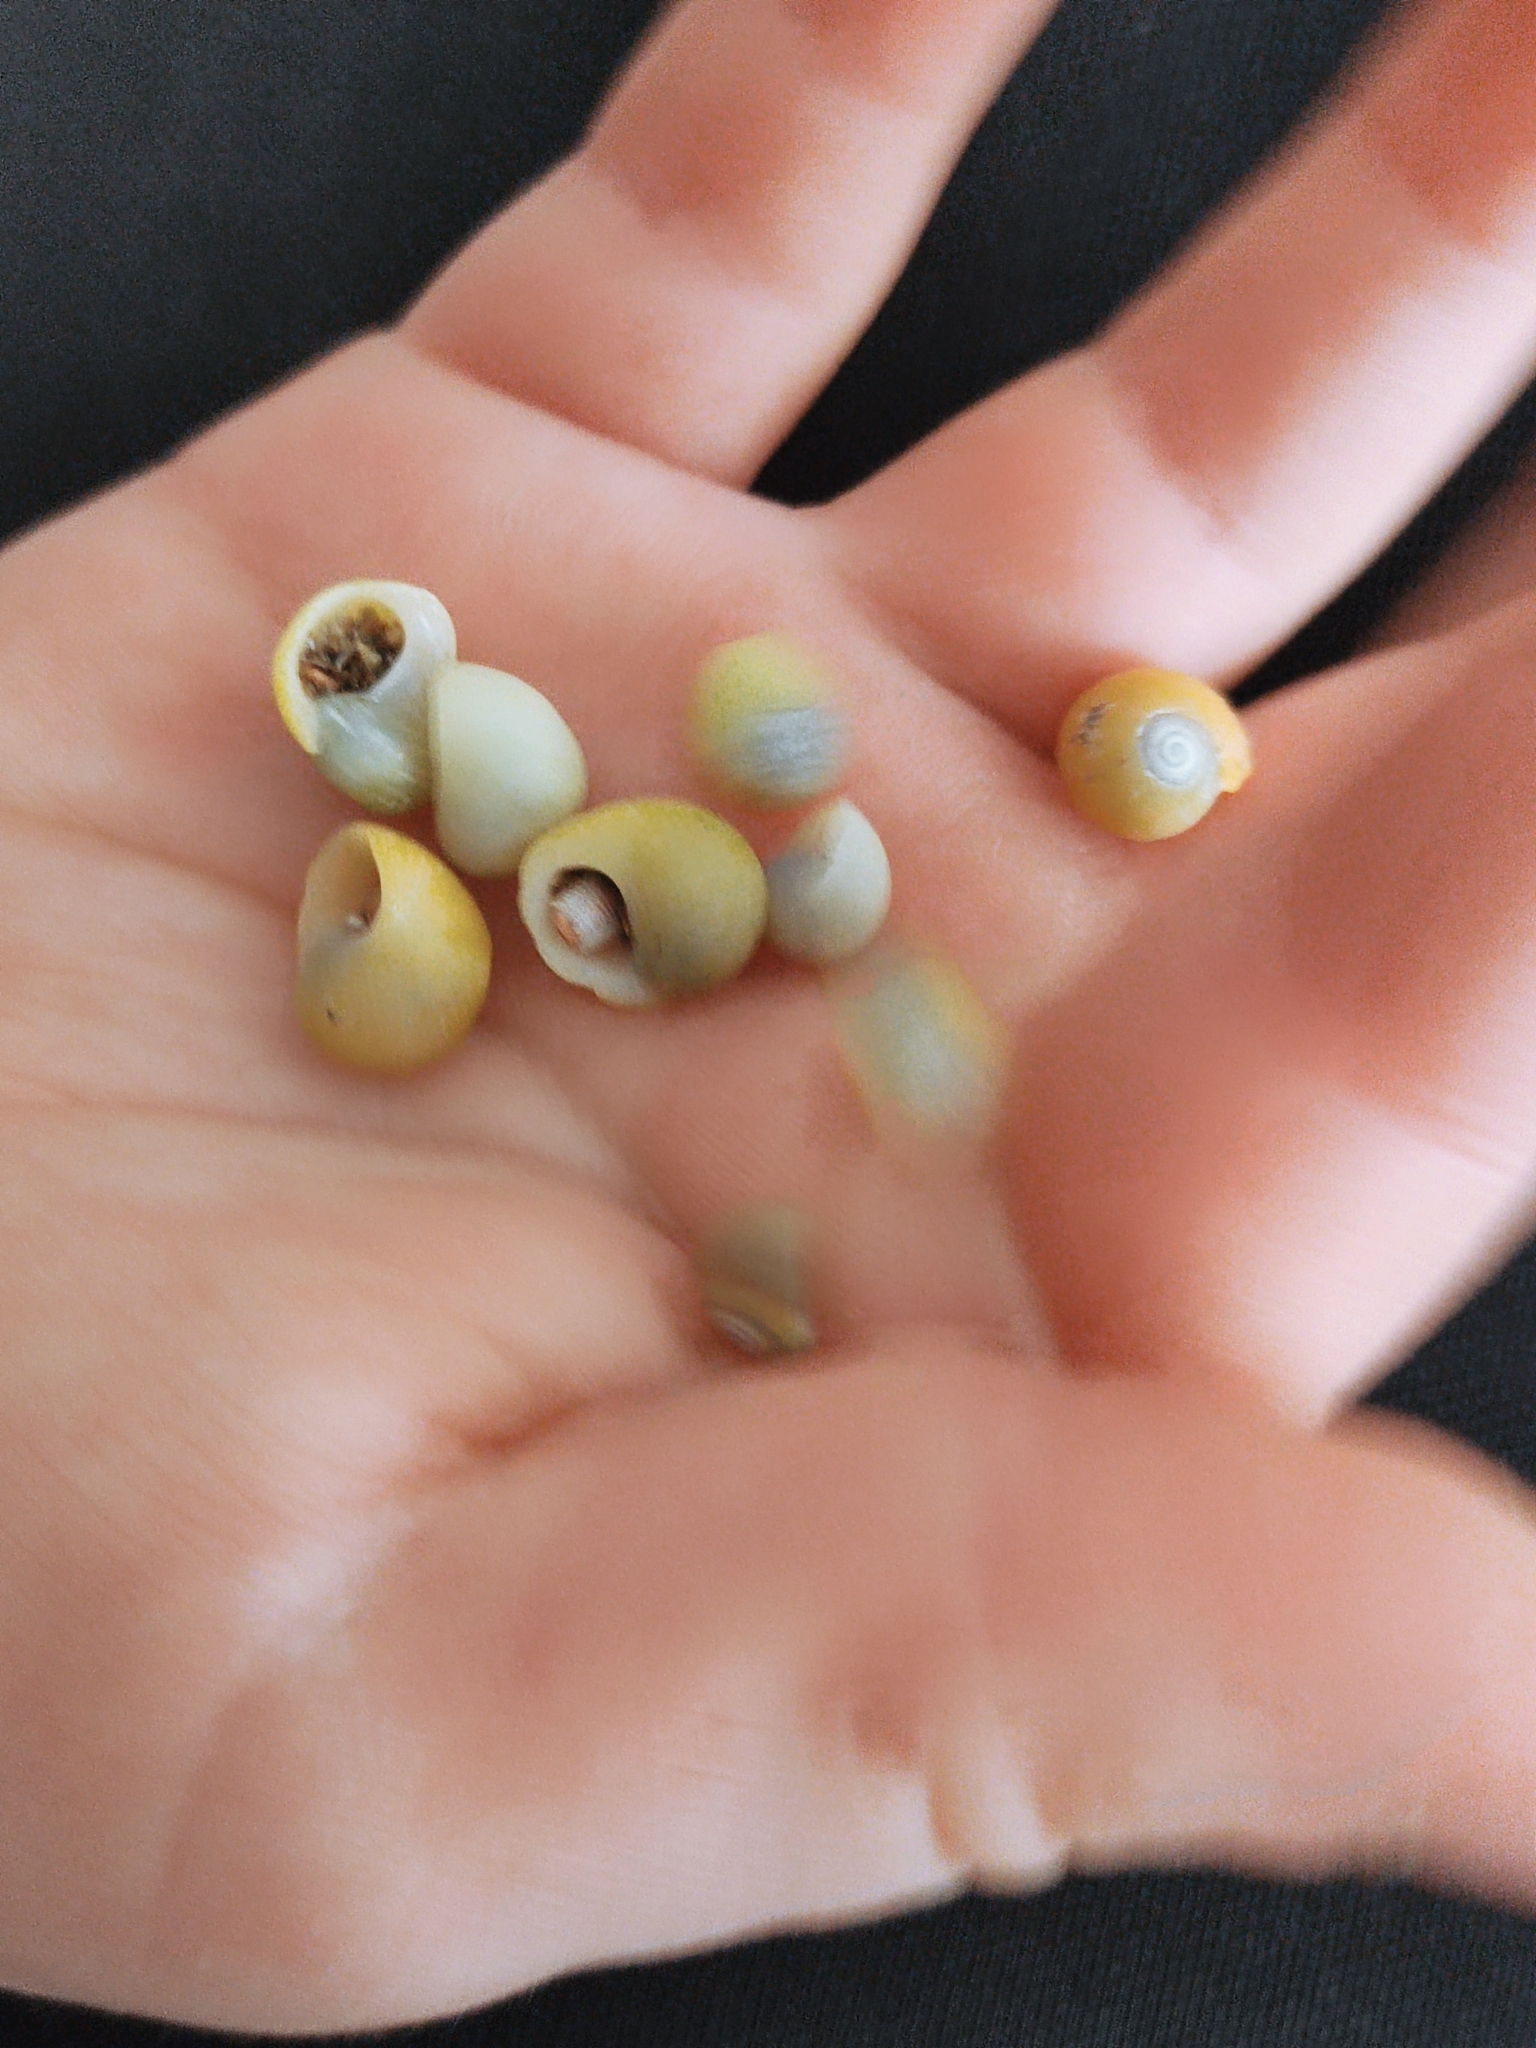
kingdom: Animalia
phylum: Mollusca
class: Gastropoda
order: Littorinimorpha
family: Littorinidae
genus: Littorina
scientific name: Littorina obtusata
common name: Flat periwinkle
